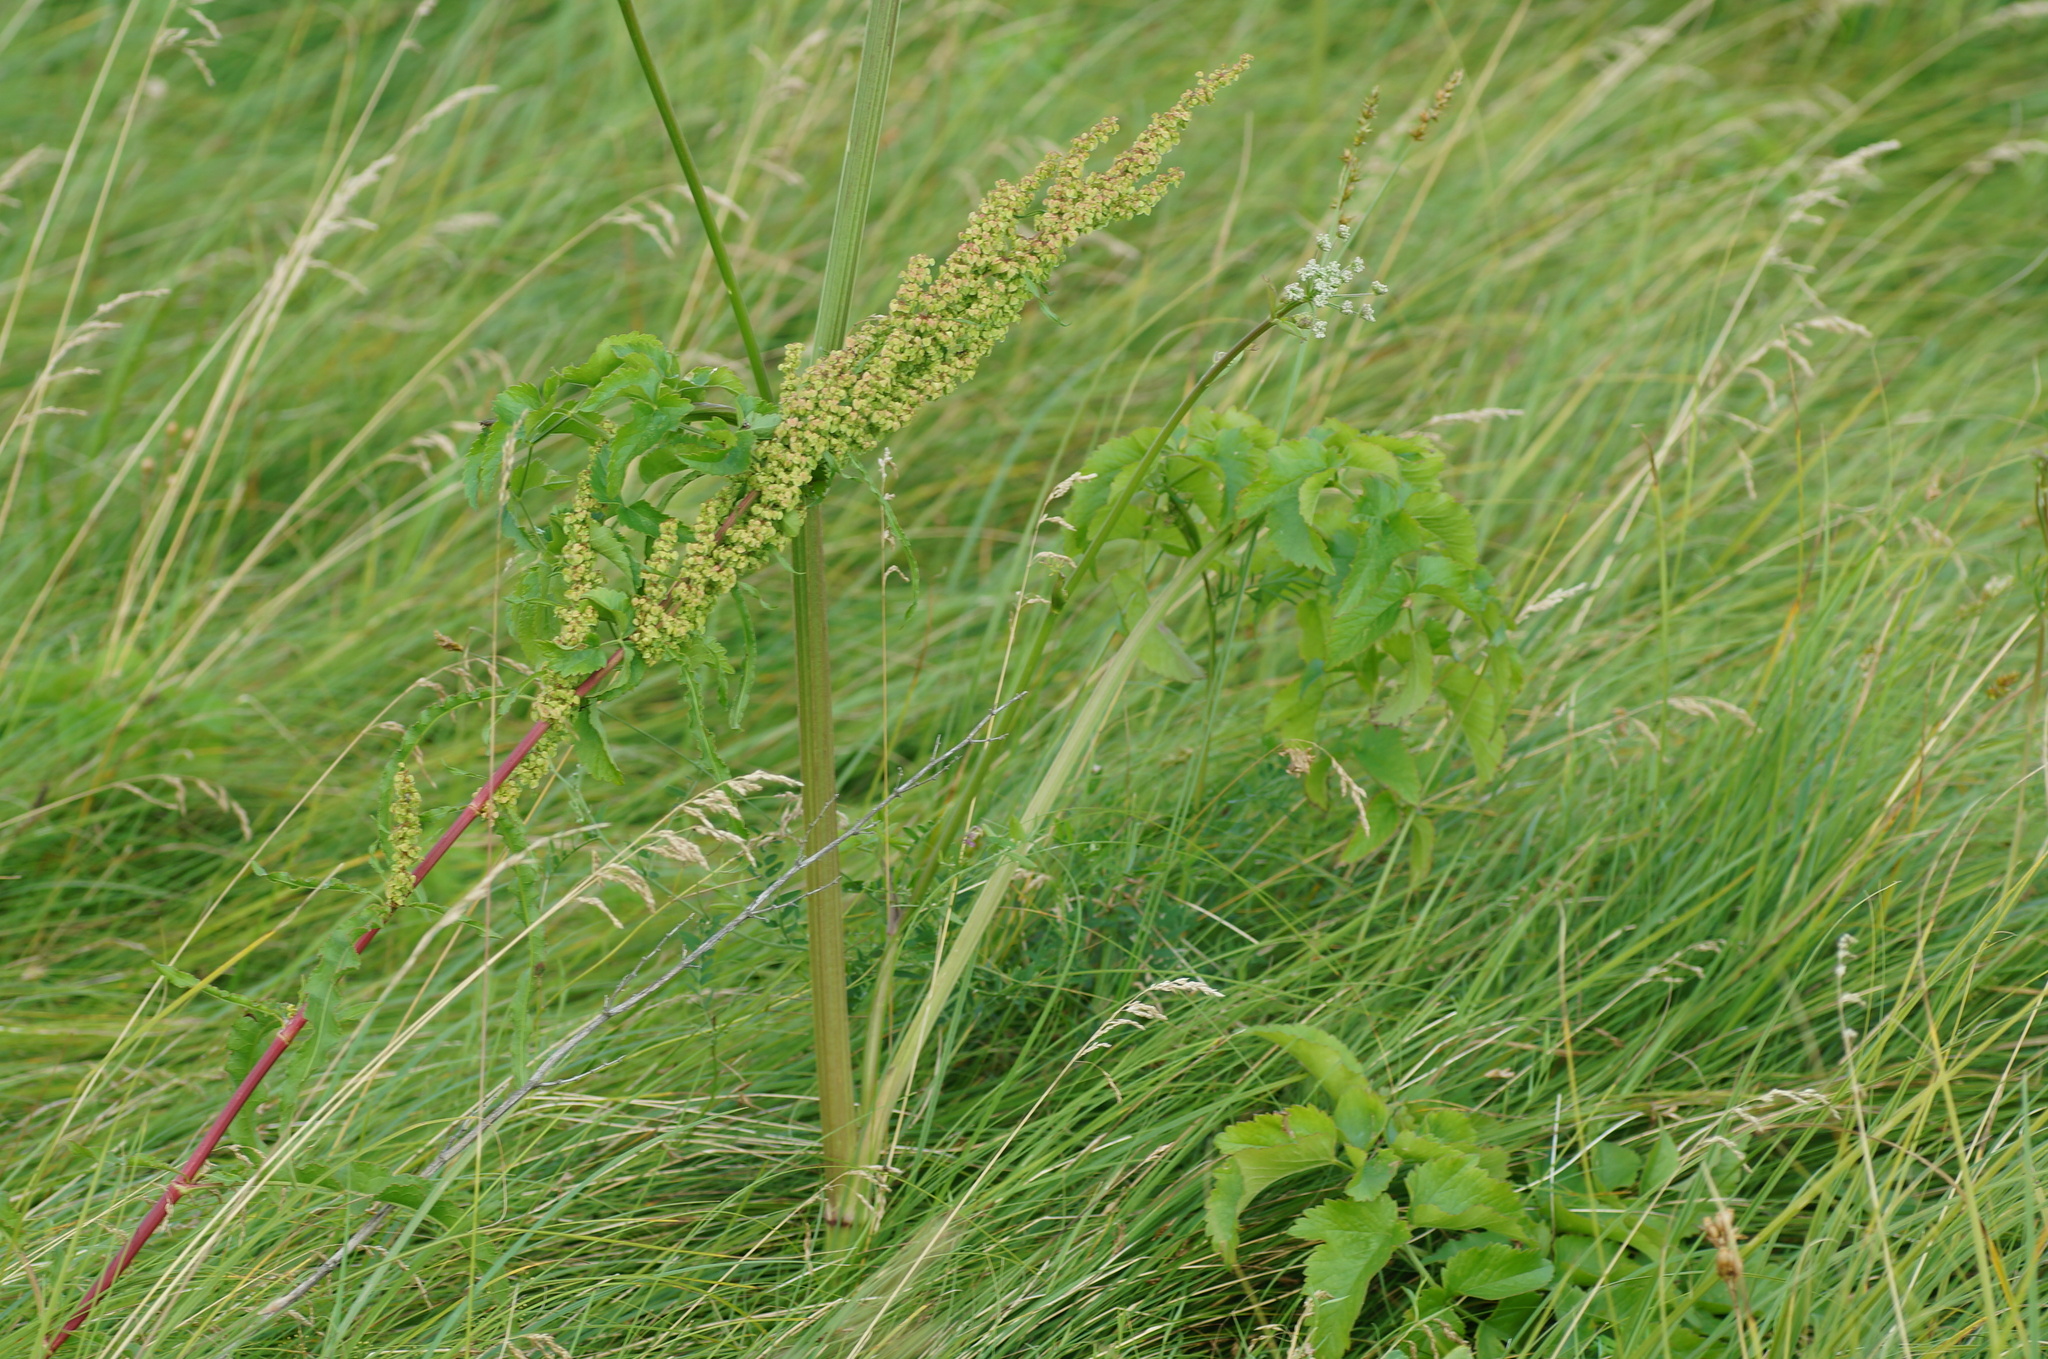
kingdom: Plantae
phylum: Tracheophyta
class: Magnoliopsida
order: Apiales
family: Apiaceae
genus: Ostericum
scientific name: Ostericum palustre
